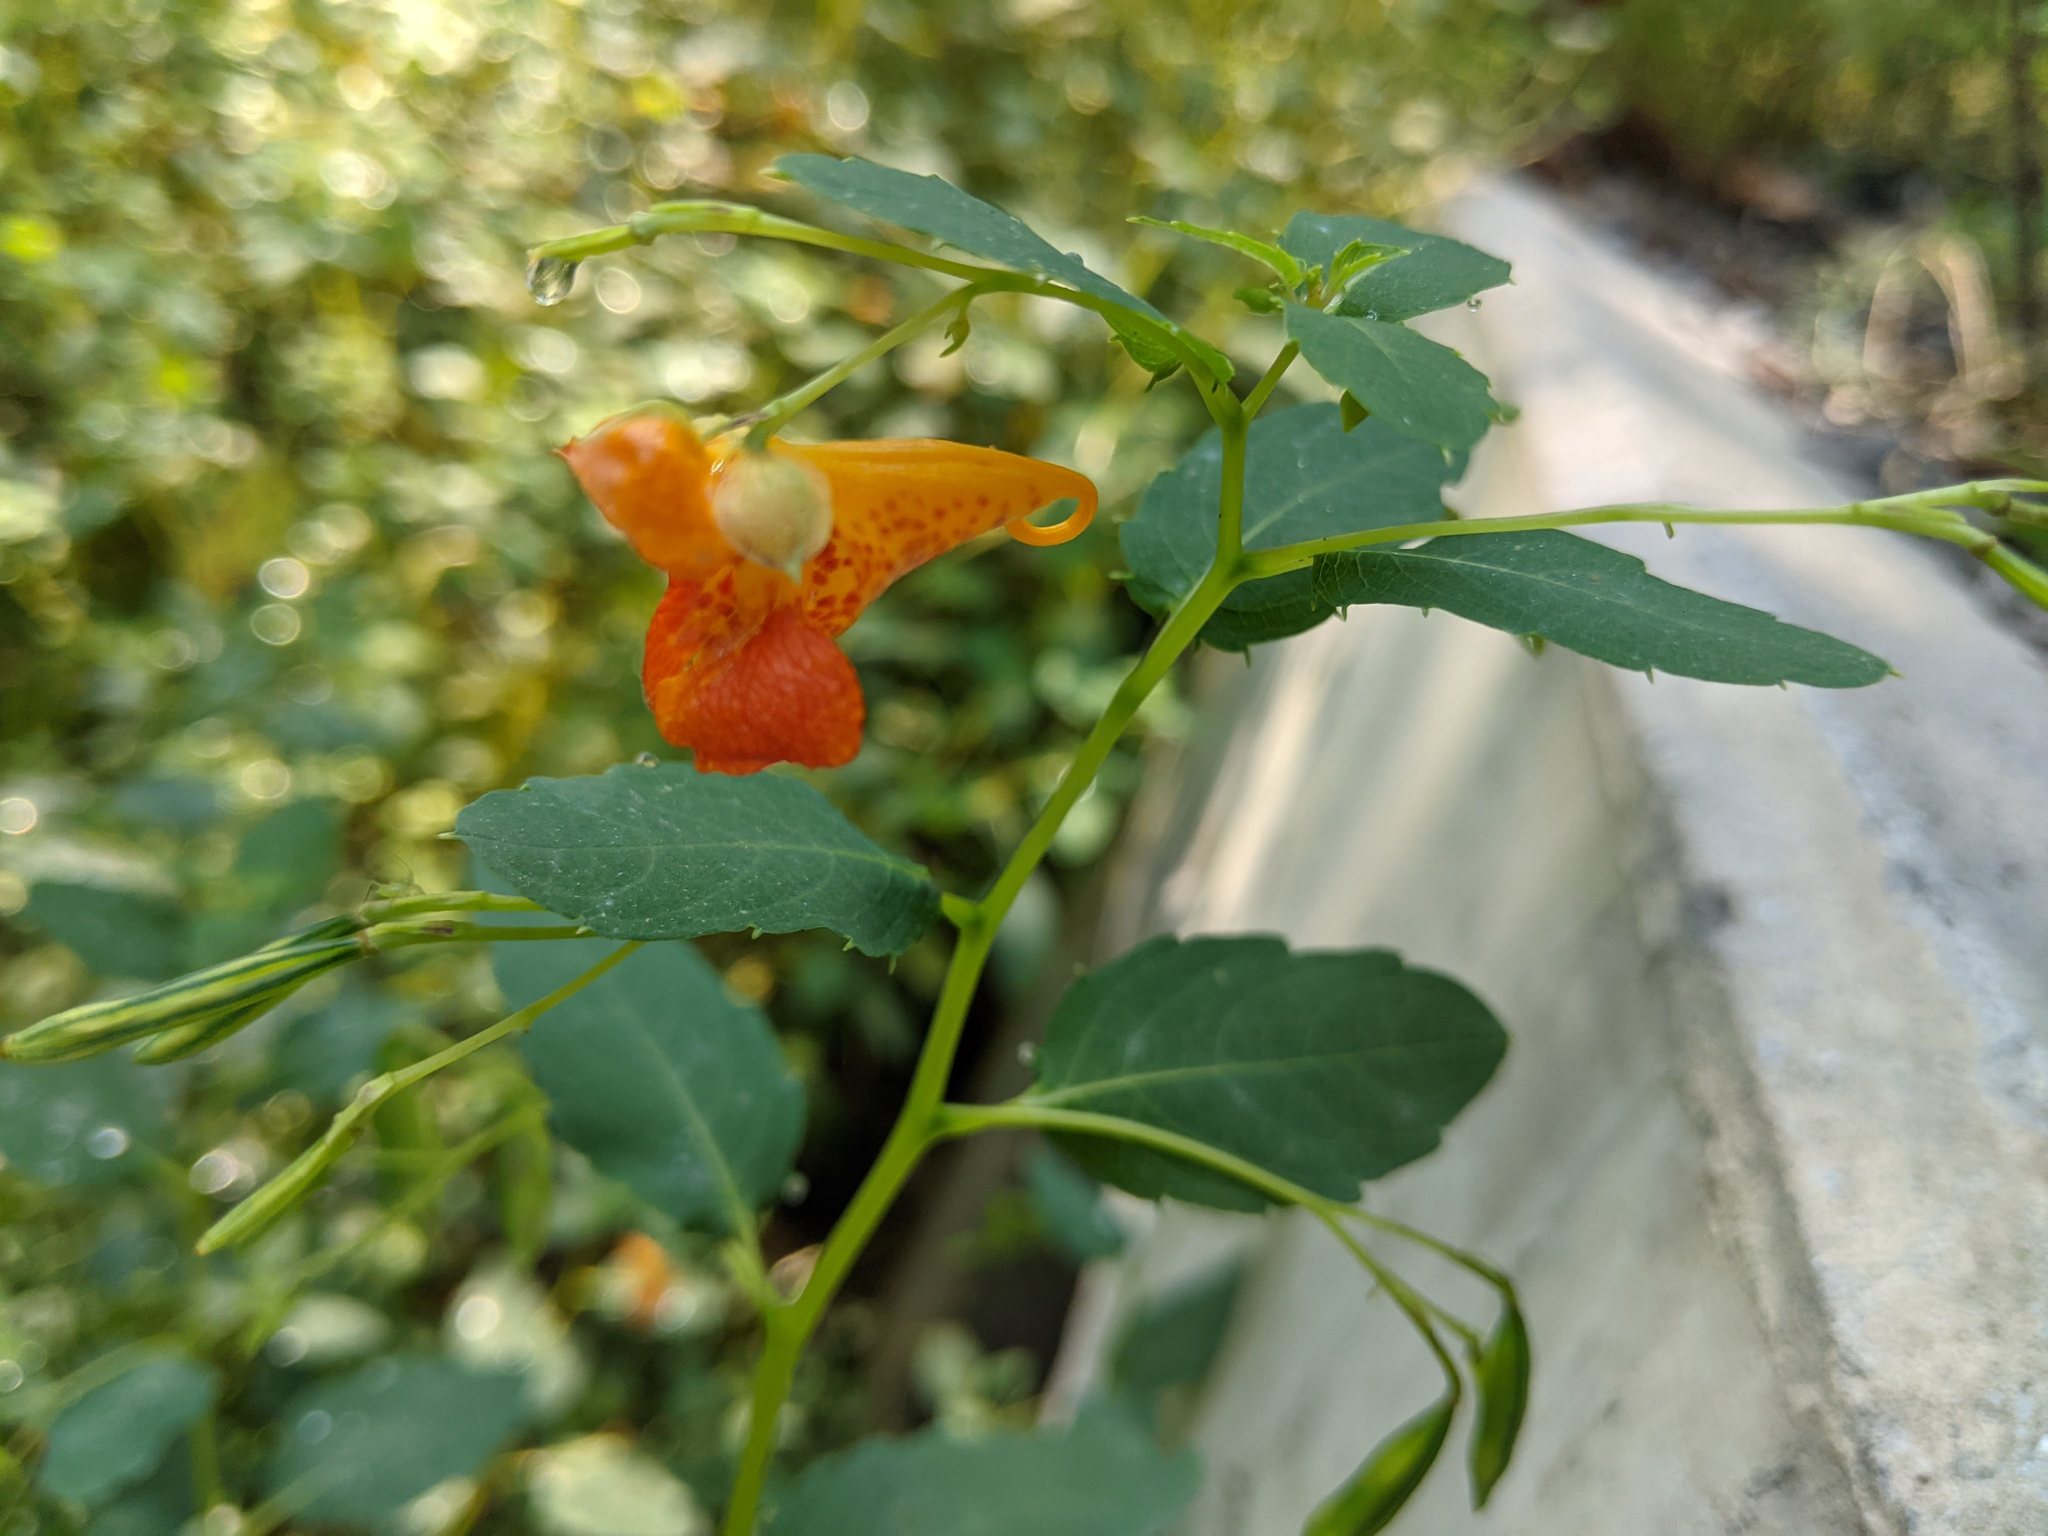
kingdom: Plantae
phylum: Tracheophyta
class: Magnoliopsida
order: Ericales
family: Balsaminaceae
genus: Impatiens
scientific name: Impatiens capensis
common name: Orange balsam
